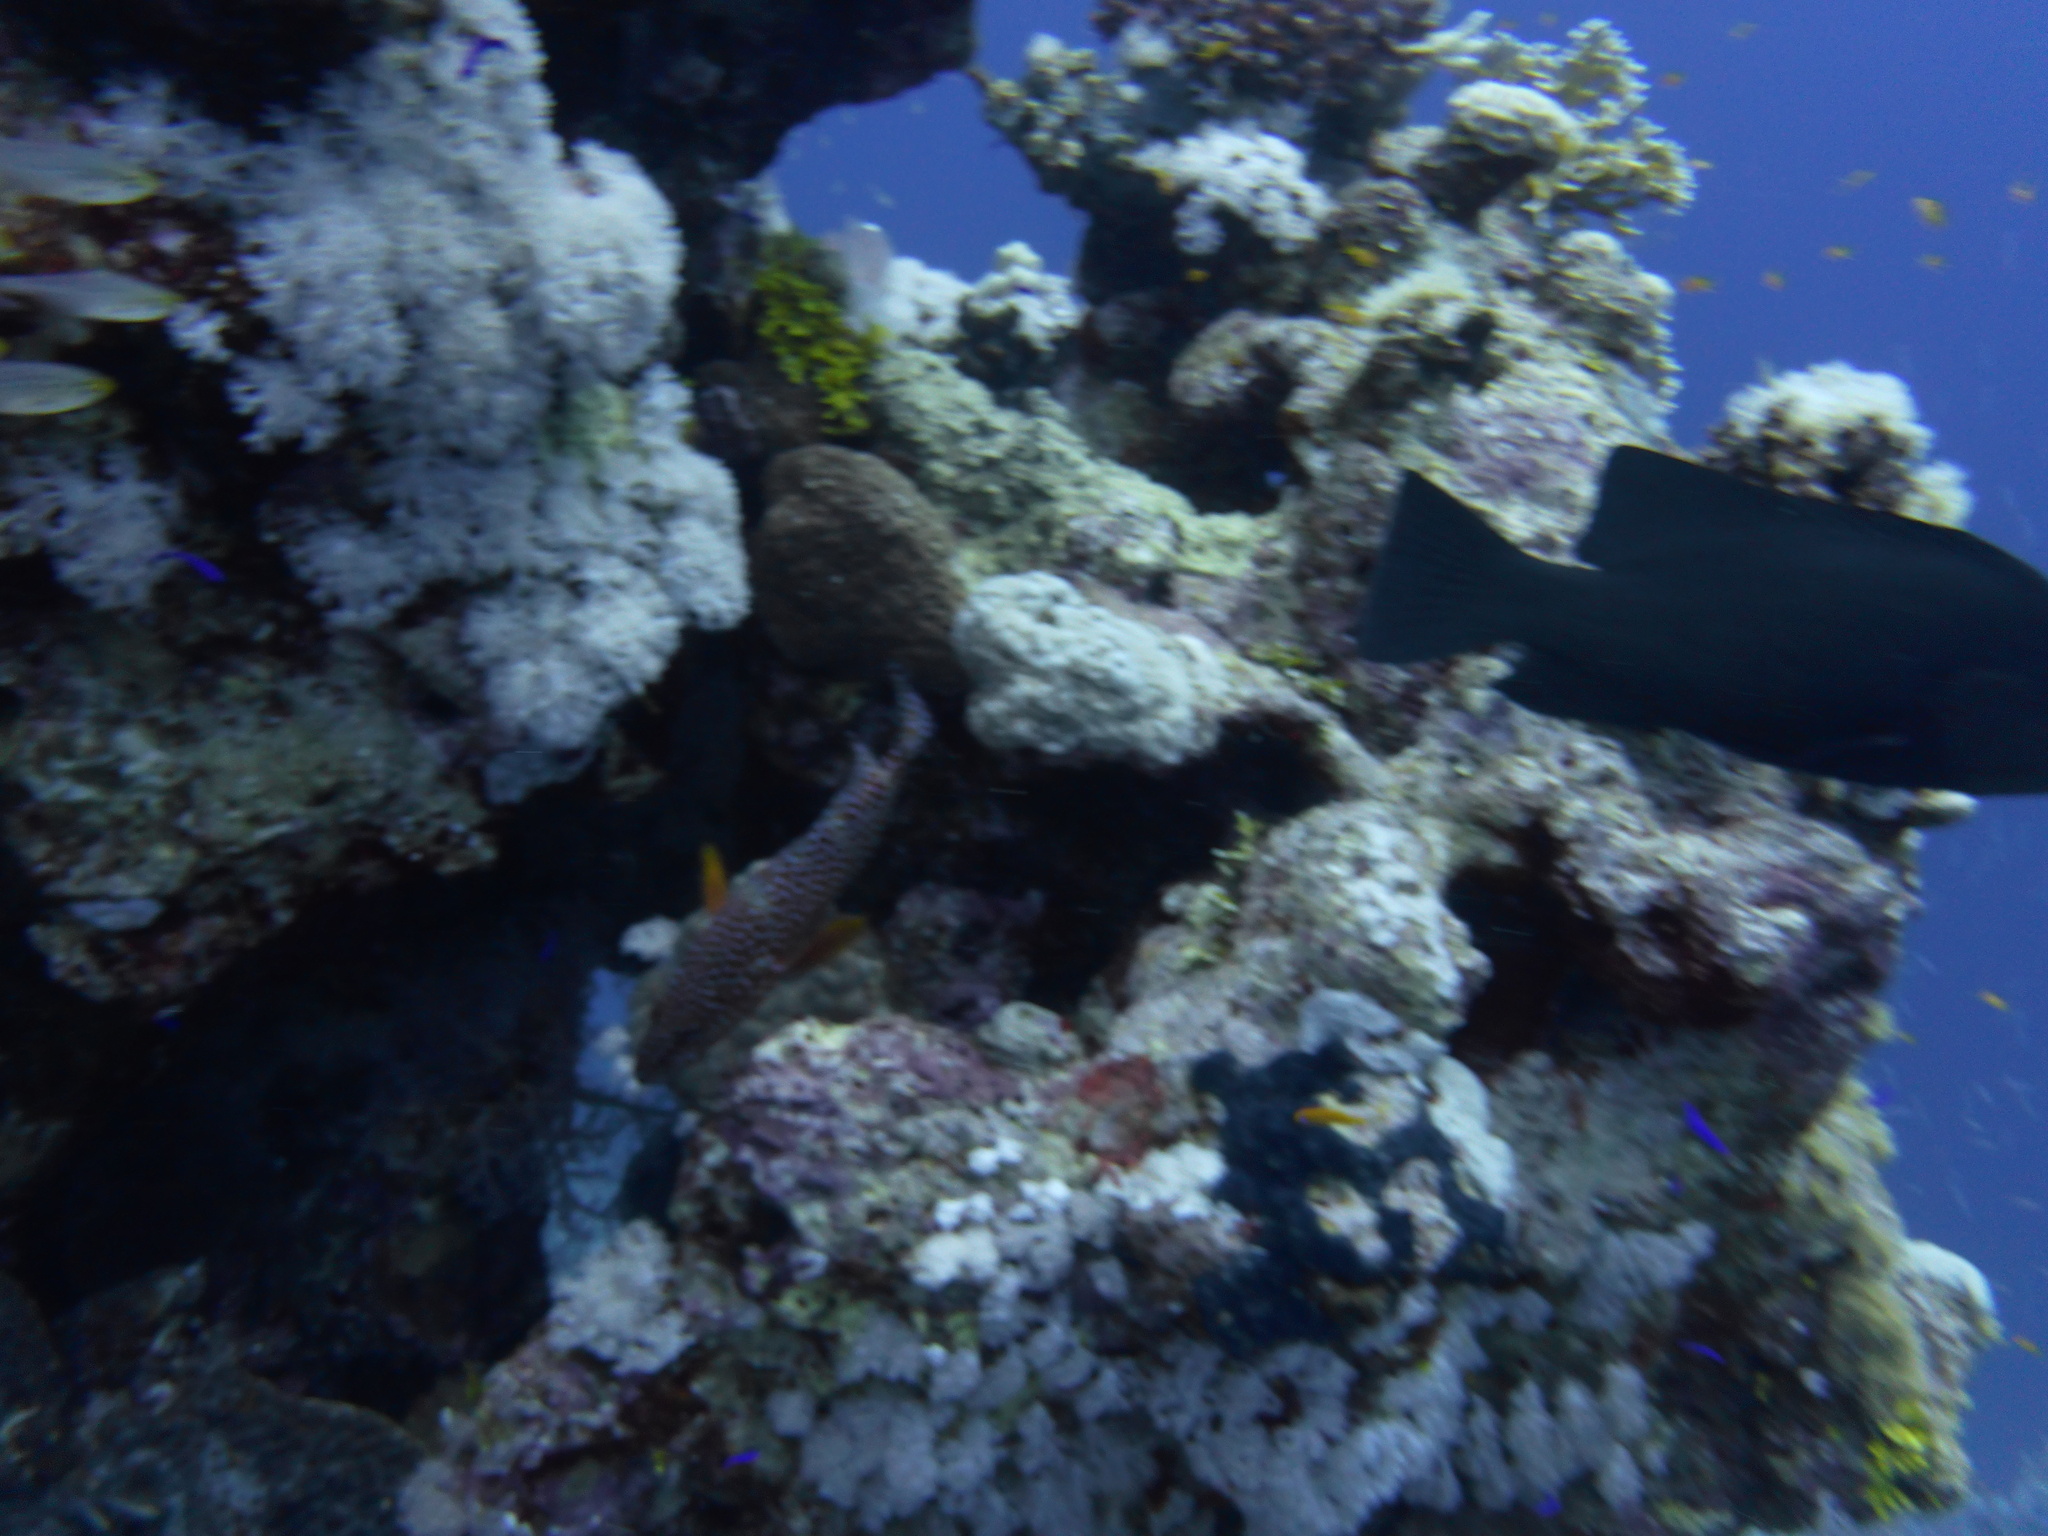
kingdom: Animalia
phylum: Chordata
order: Perciformes
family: Serranidae
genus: Cephalopholis
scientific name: Cephalopholis miniata
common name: Coral hind
